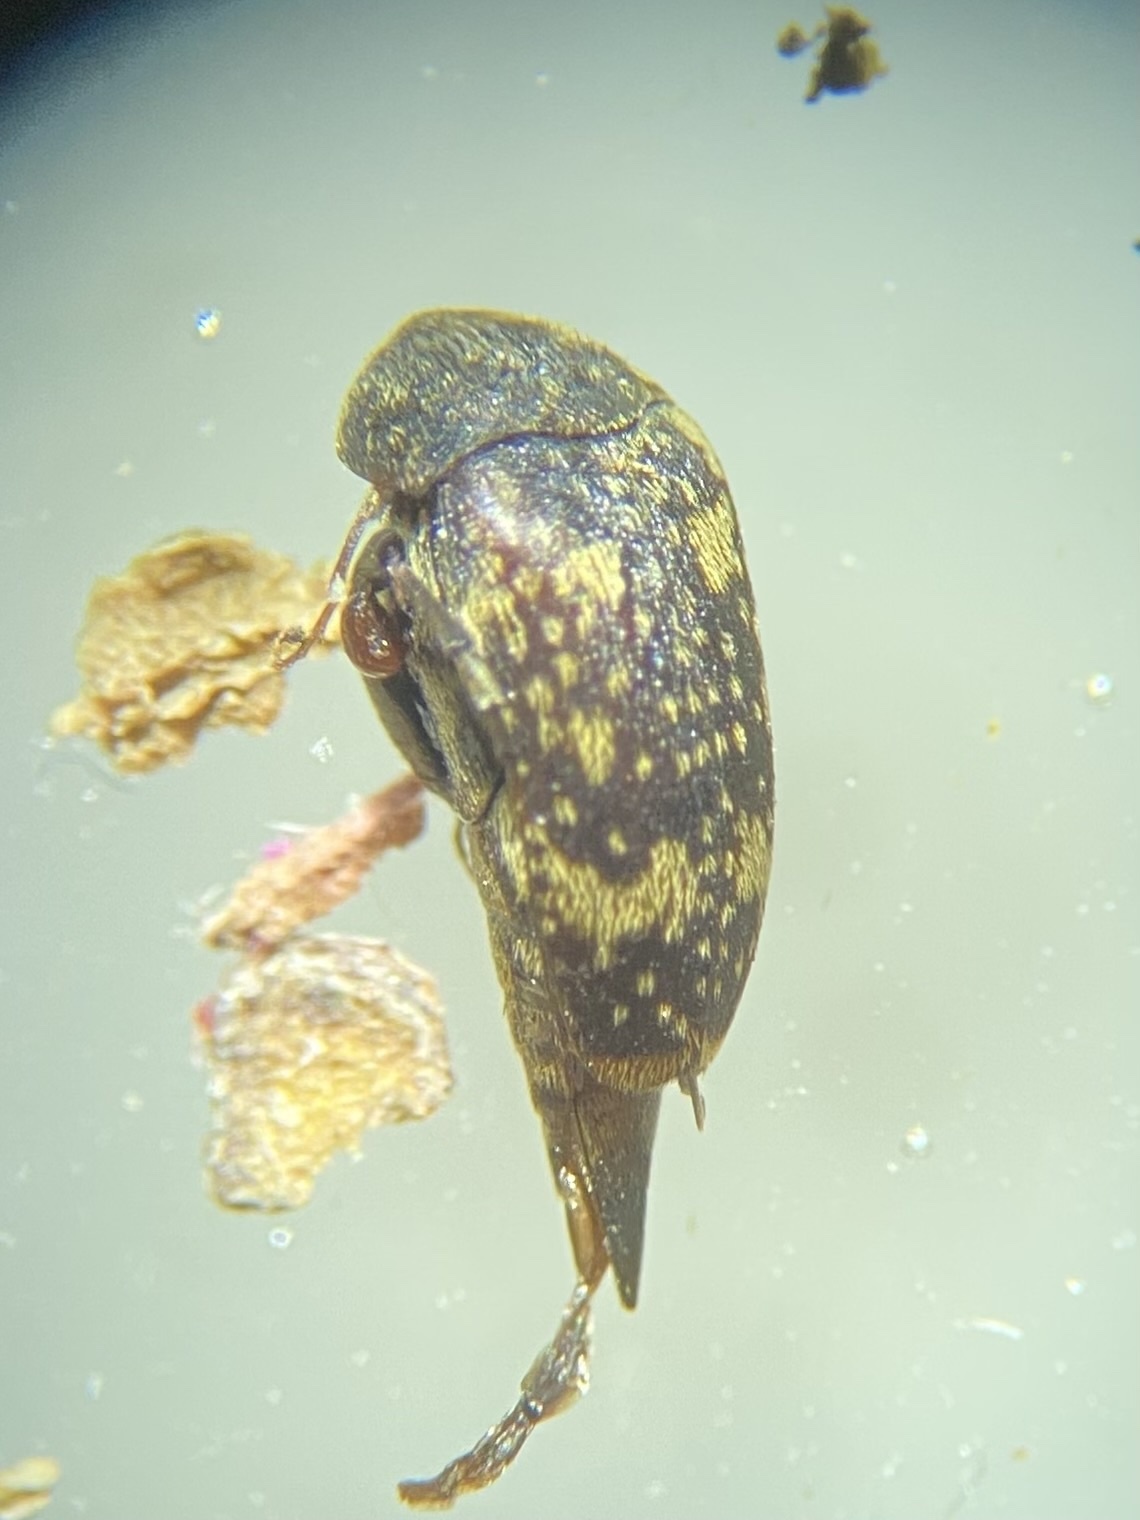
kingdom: Animalia
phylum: Arthropoda
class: Insecta
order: Coleoptera
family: Mordellidae
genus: Mordellaria
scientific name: Mordellaria serval
